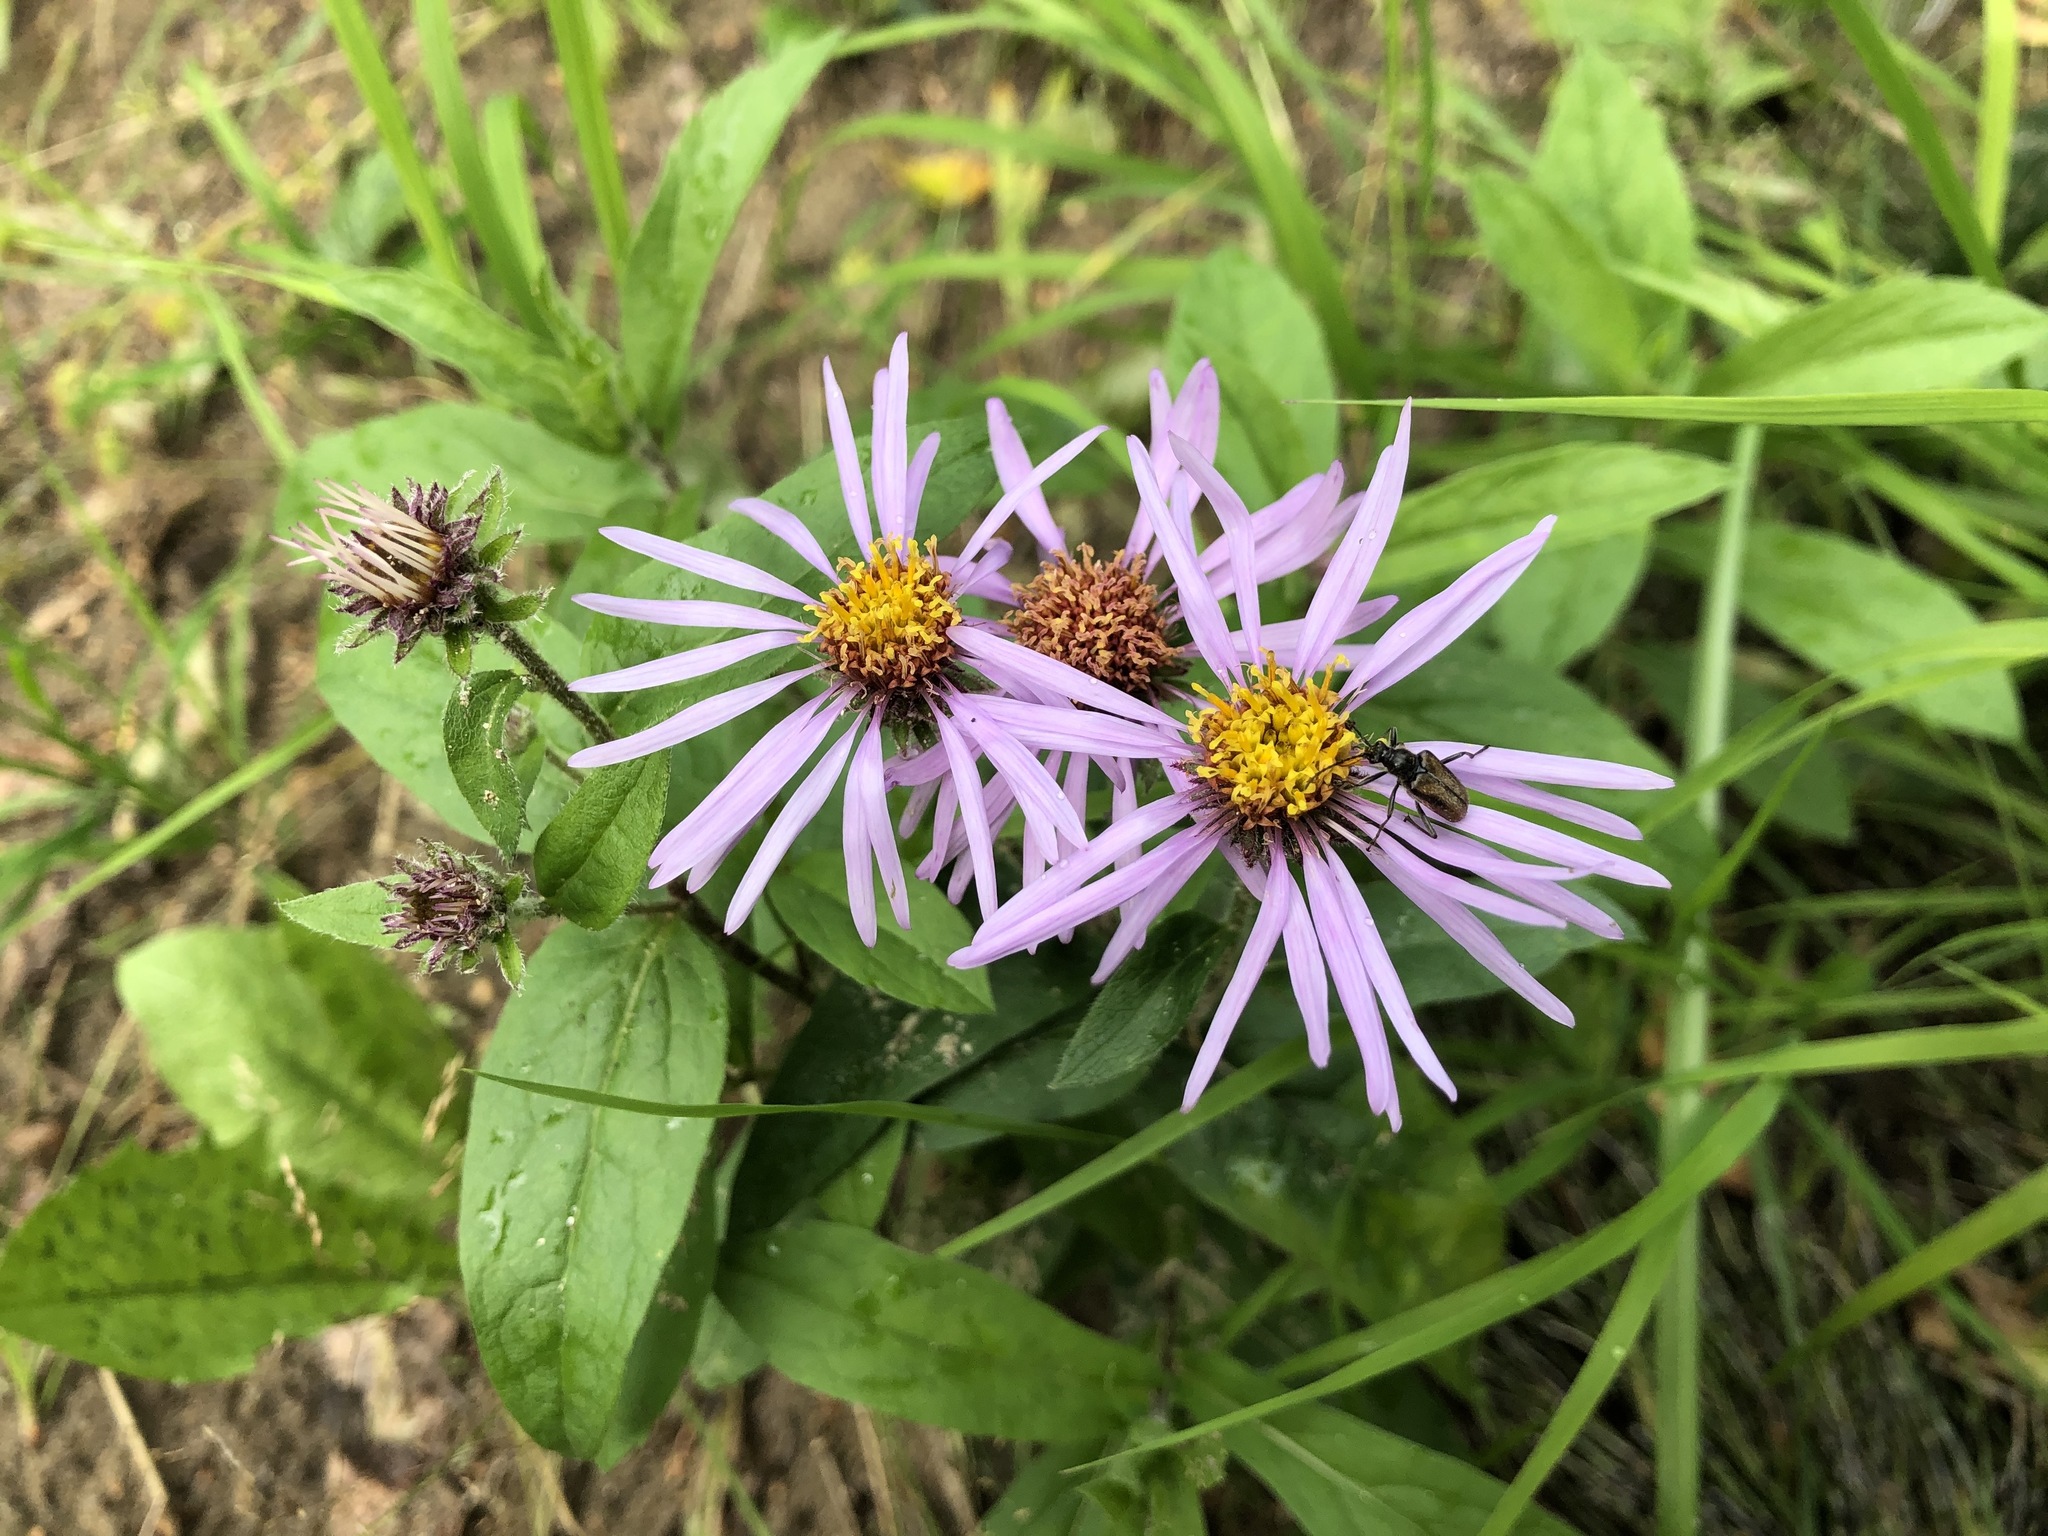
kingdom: Animalia
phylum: Arthropoda
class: Insecta
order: Coleoptera
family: Cerambycidae
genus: Gnathacmaeops
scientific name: Gnathacmaeops pratensis
